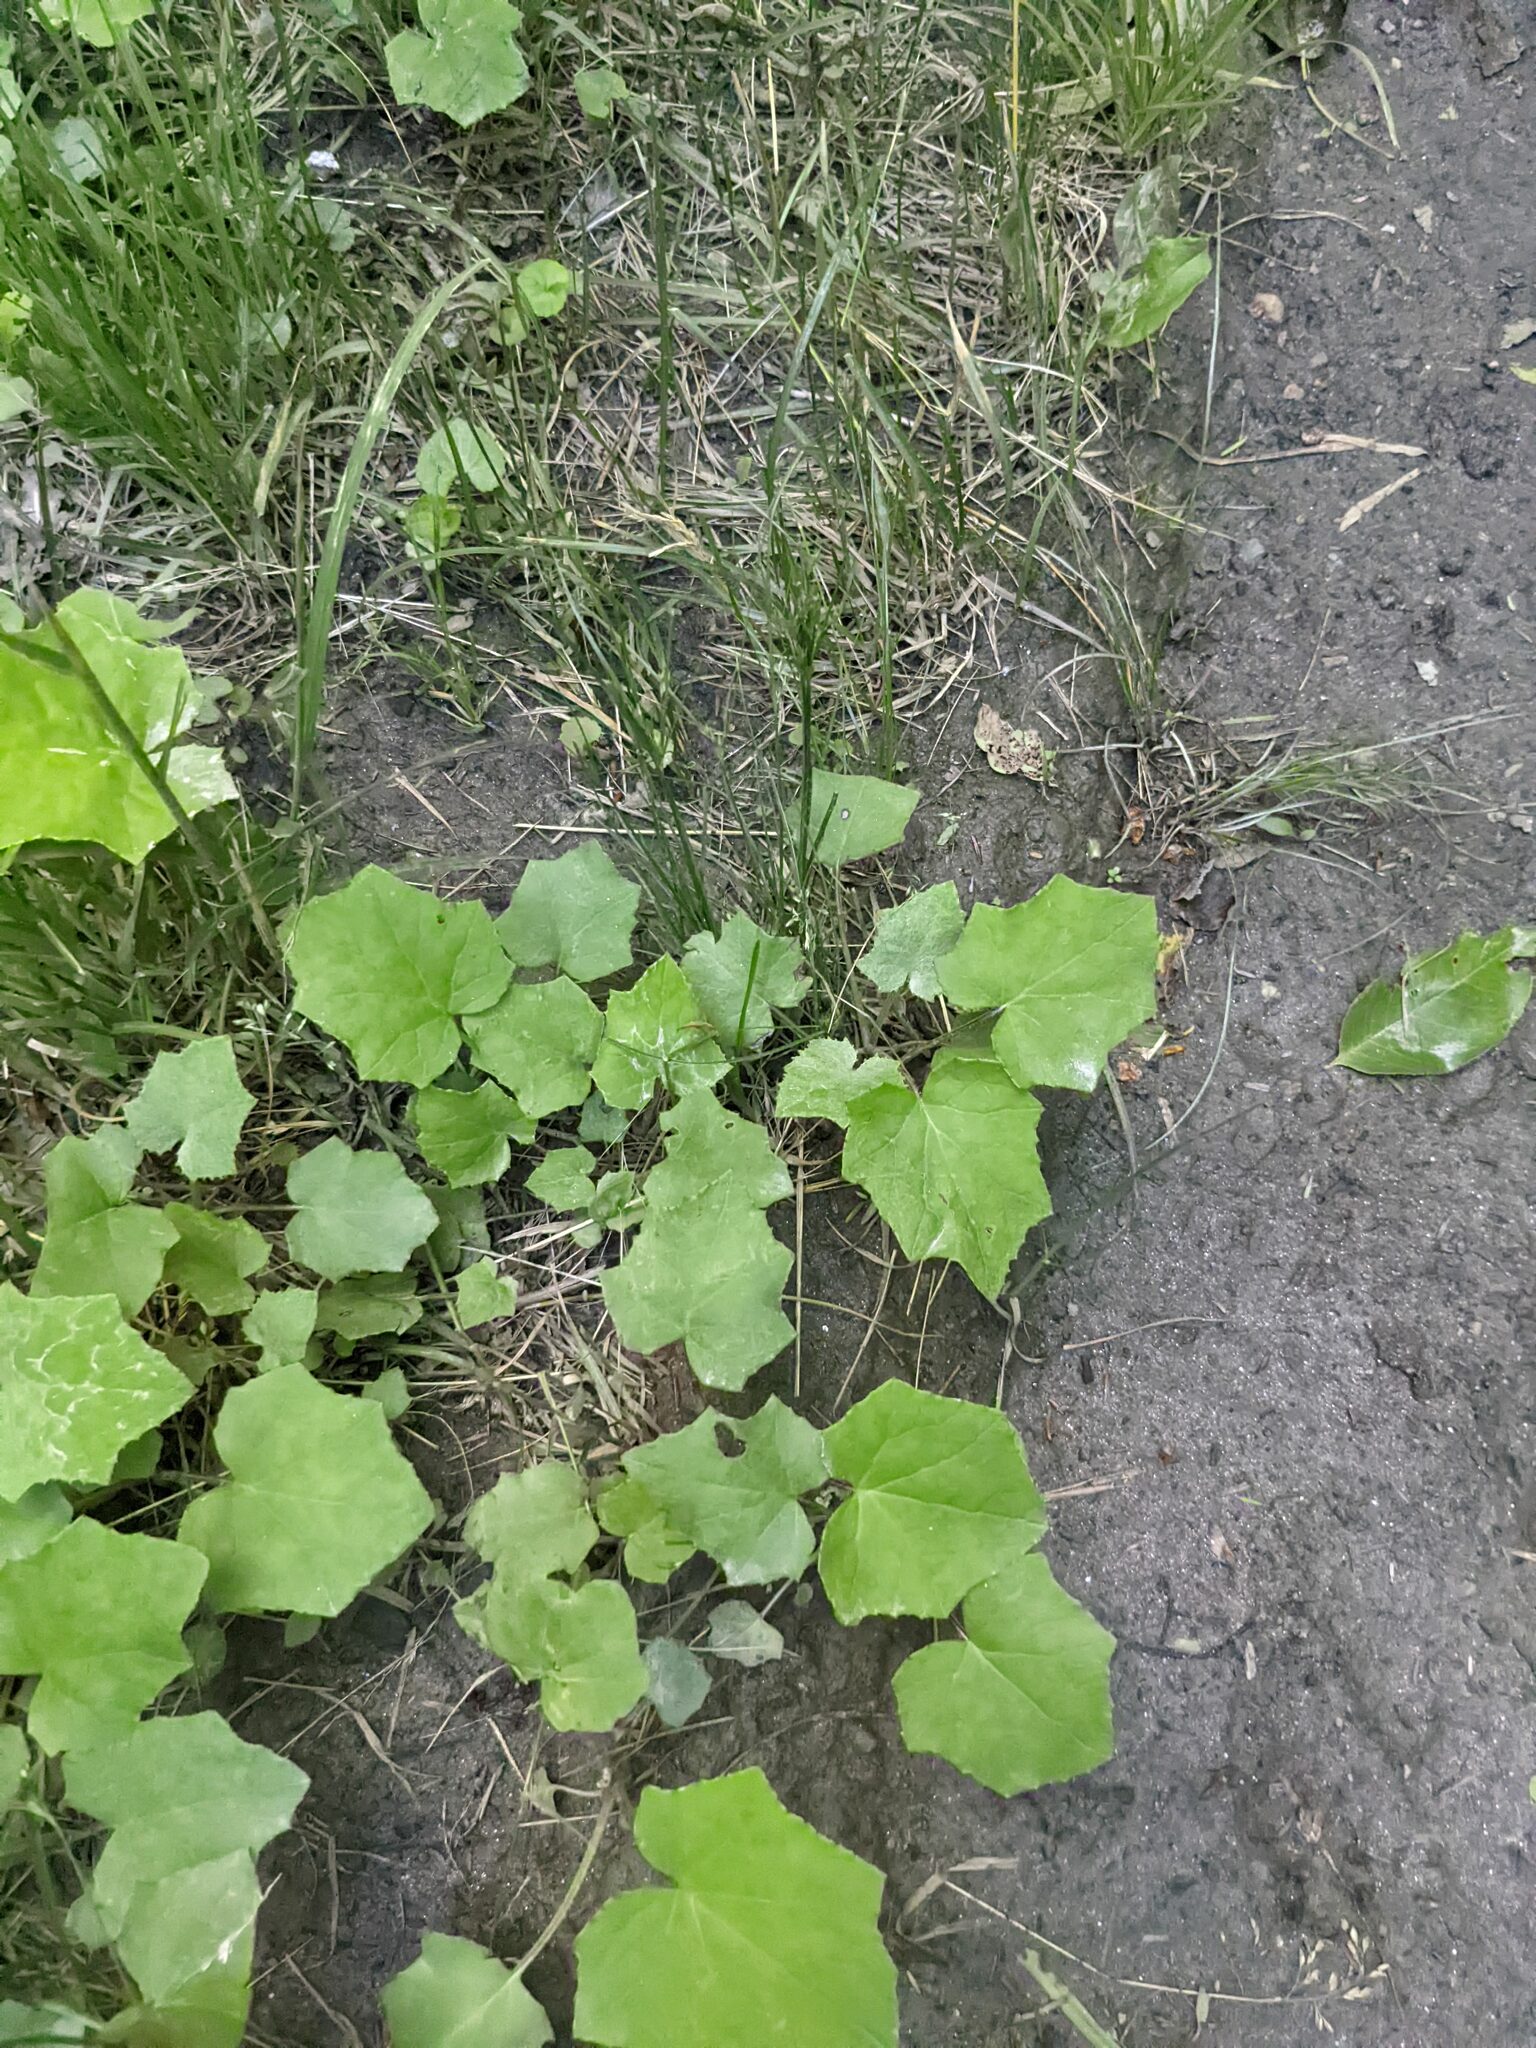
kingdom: Plantae
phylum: Tracheophyta
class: Magnoliopsida
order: Asterales
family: Asteraceae
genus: Tussilago
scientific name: Tussilago farfara
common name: Coltsfoot
